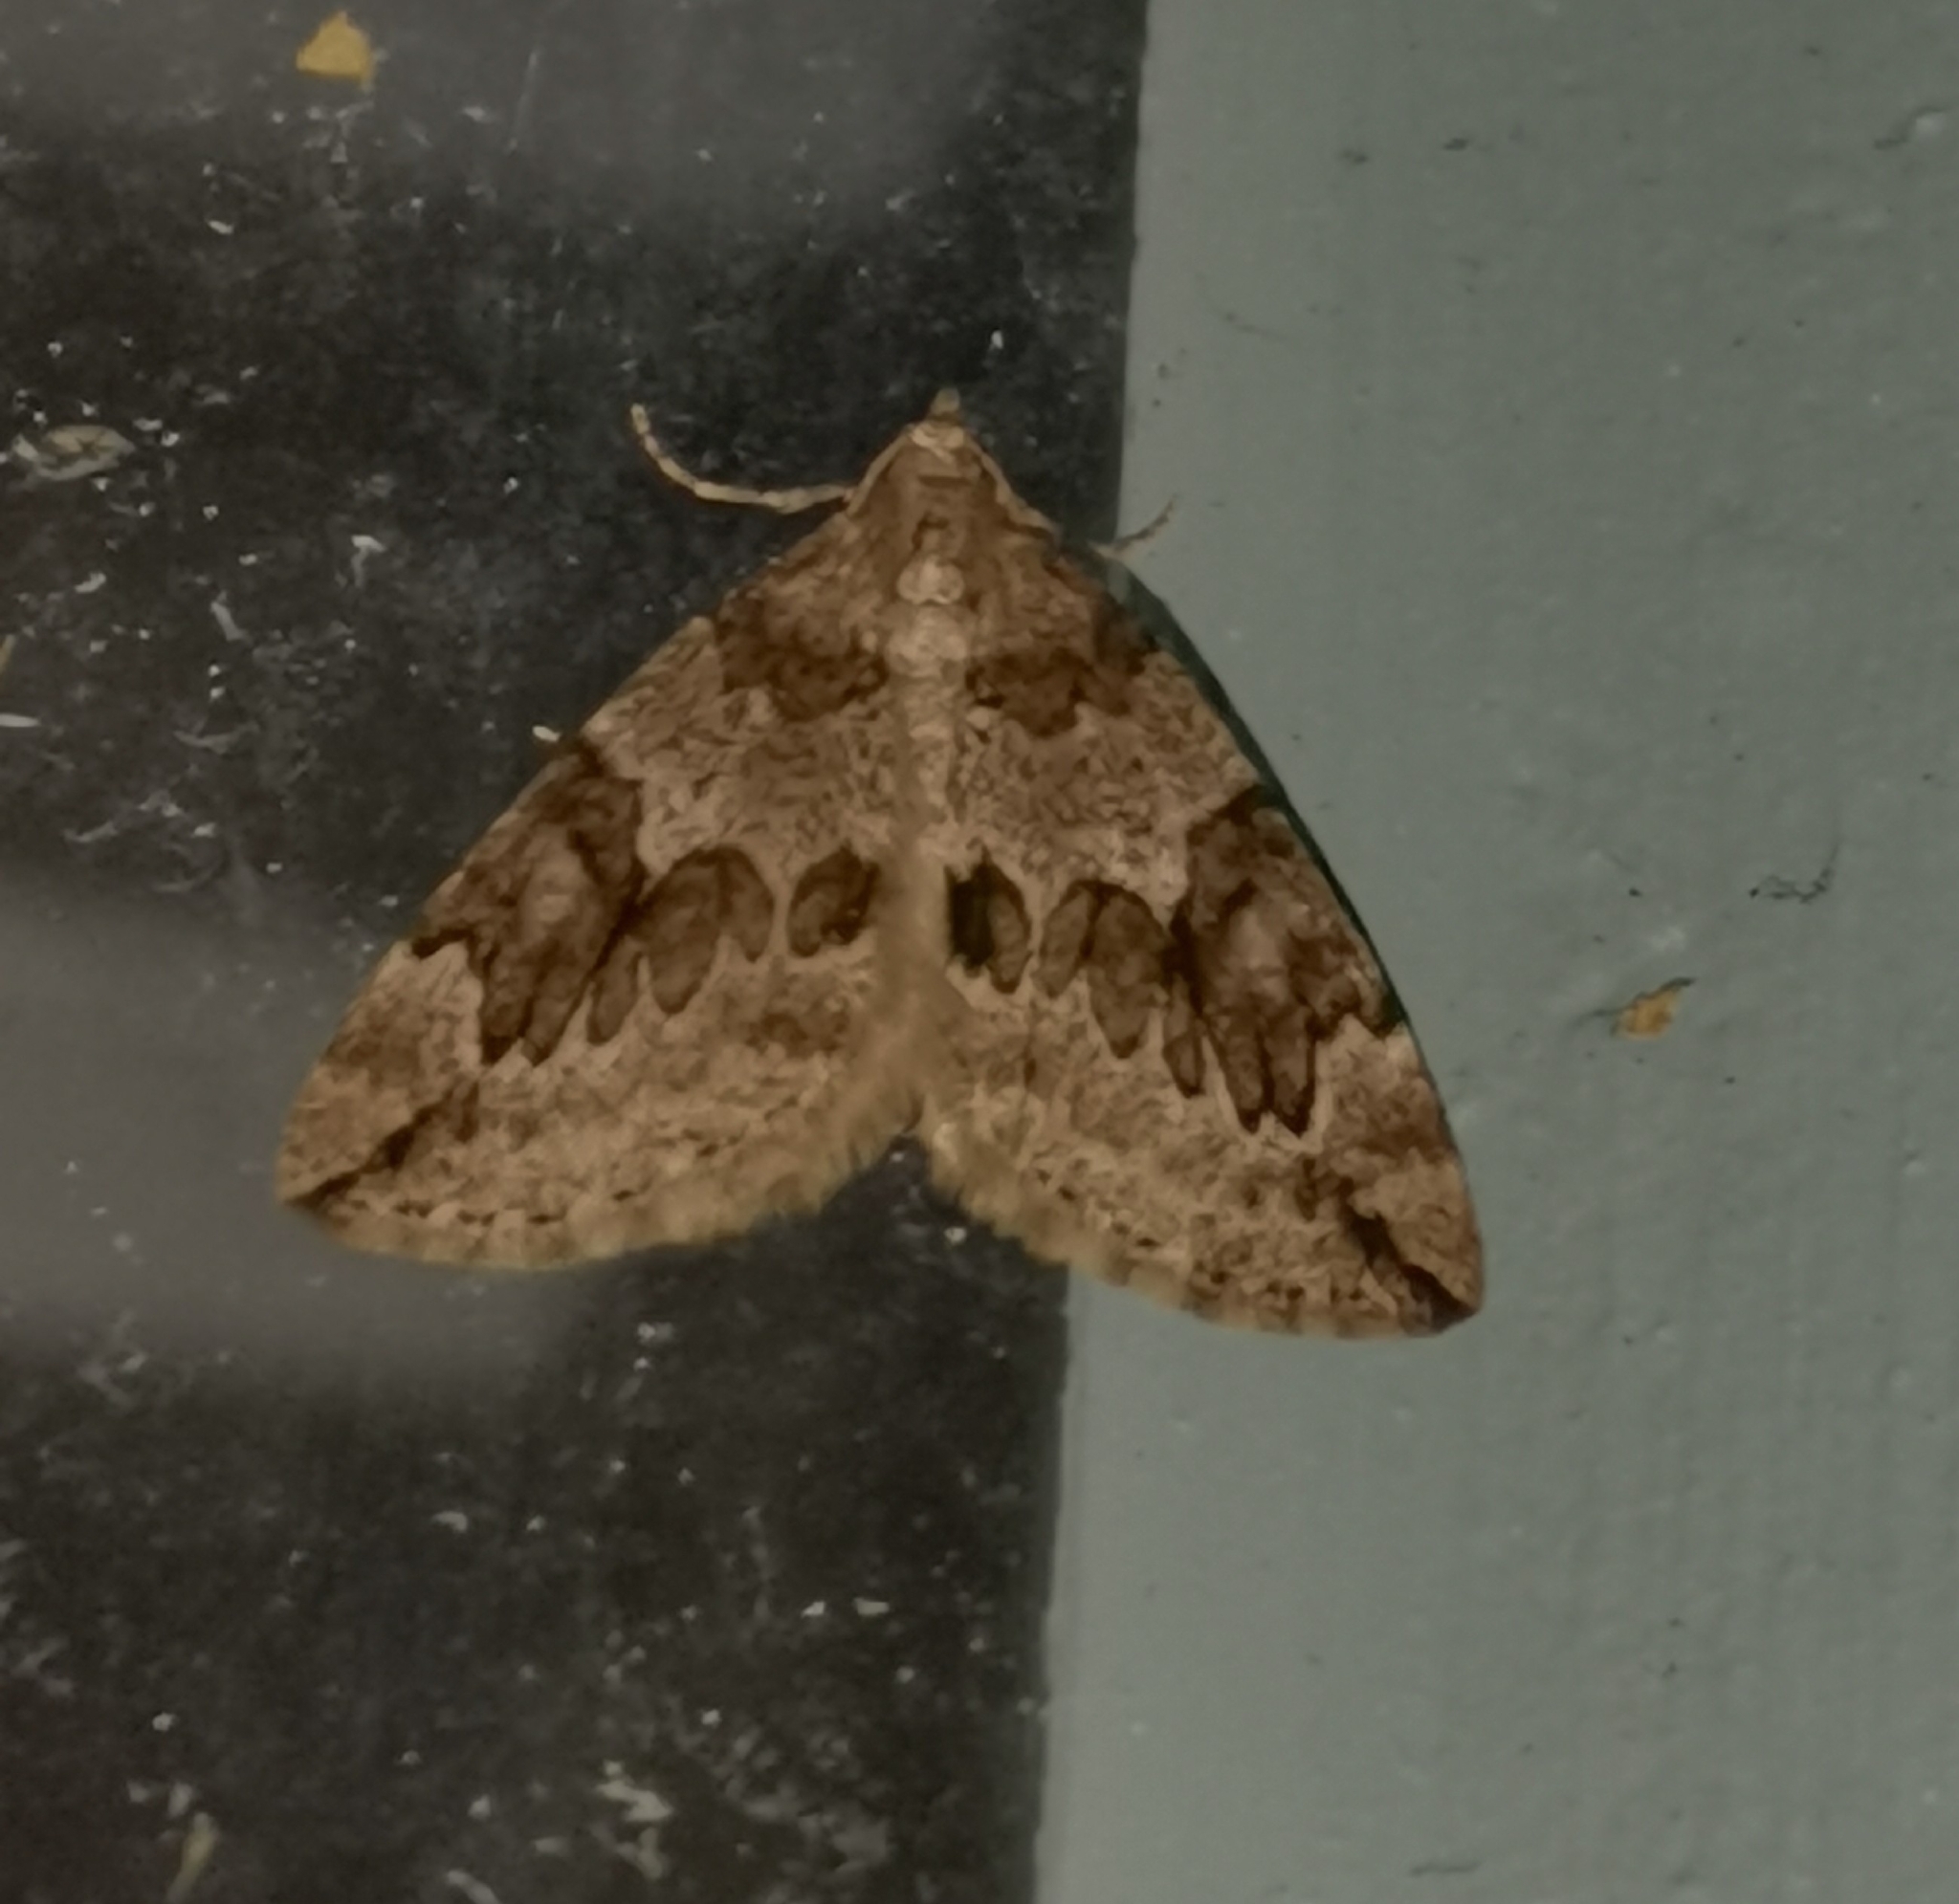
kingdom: Animalia
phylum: Arthropoda
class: Insecta
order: Lepidoptera
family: Geometridae
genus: Thera
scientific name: Thera juniperata
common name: Juniper carpet
